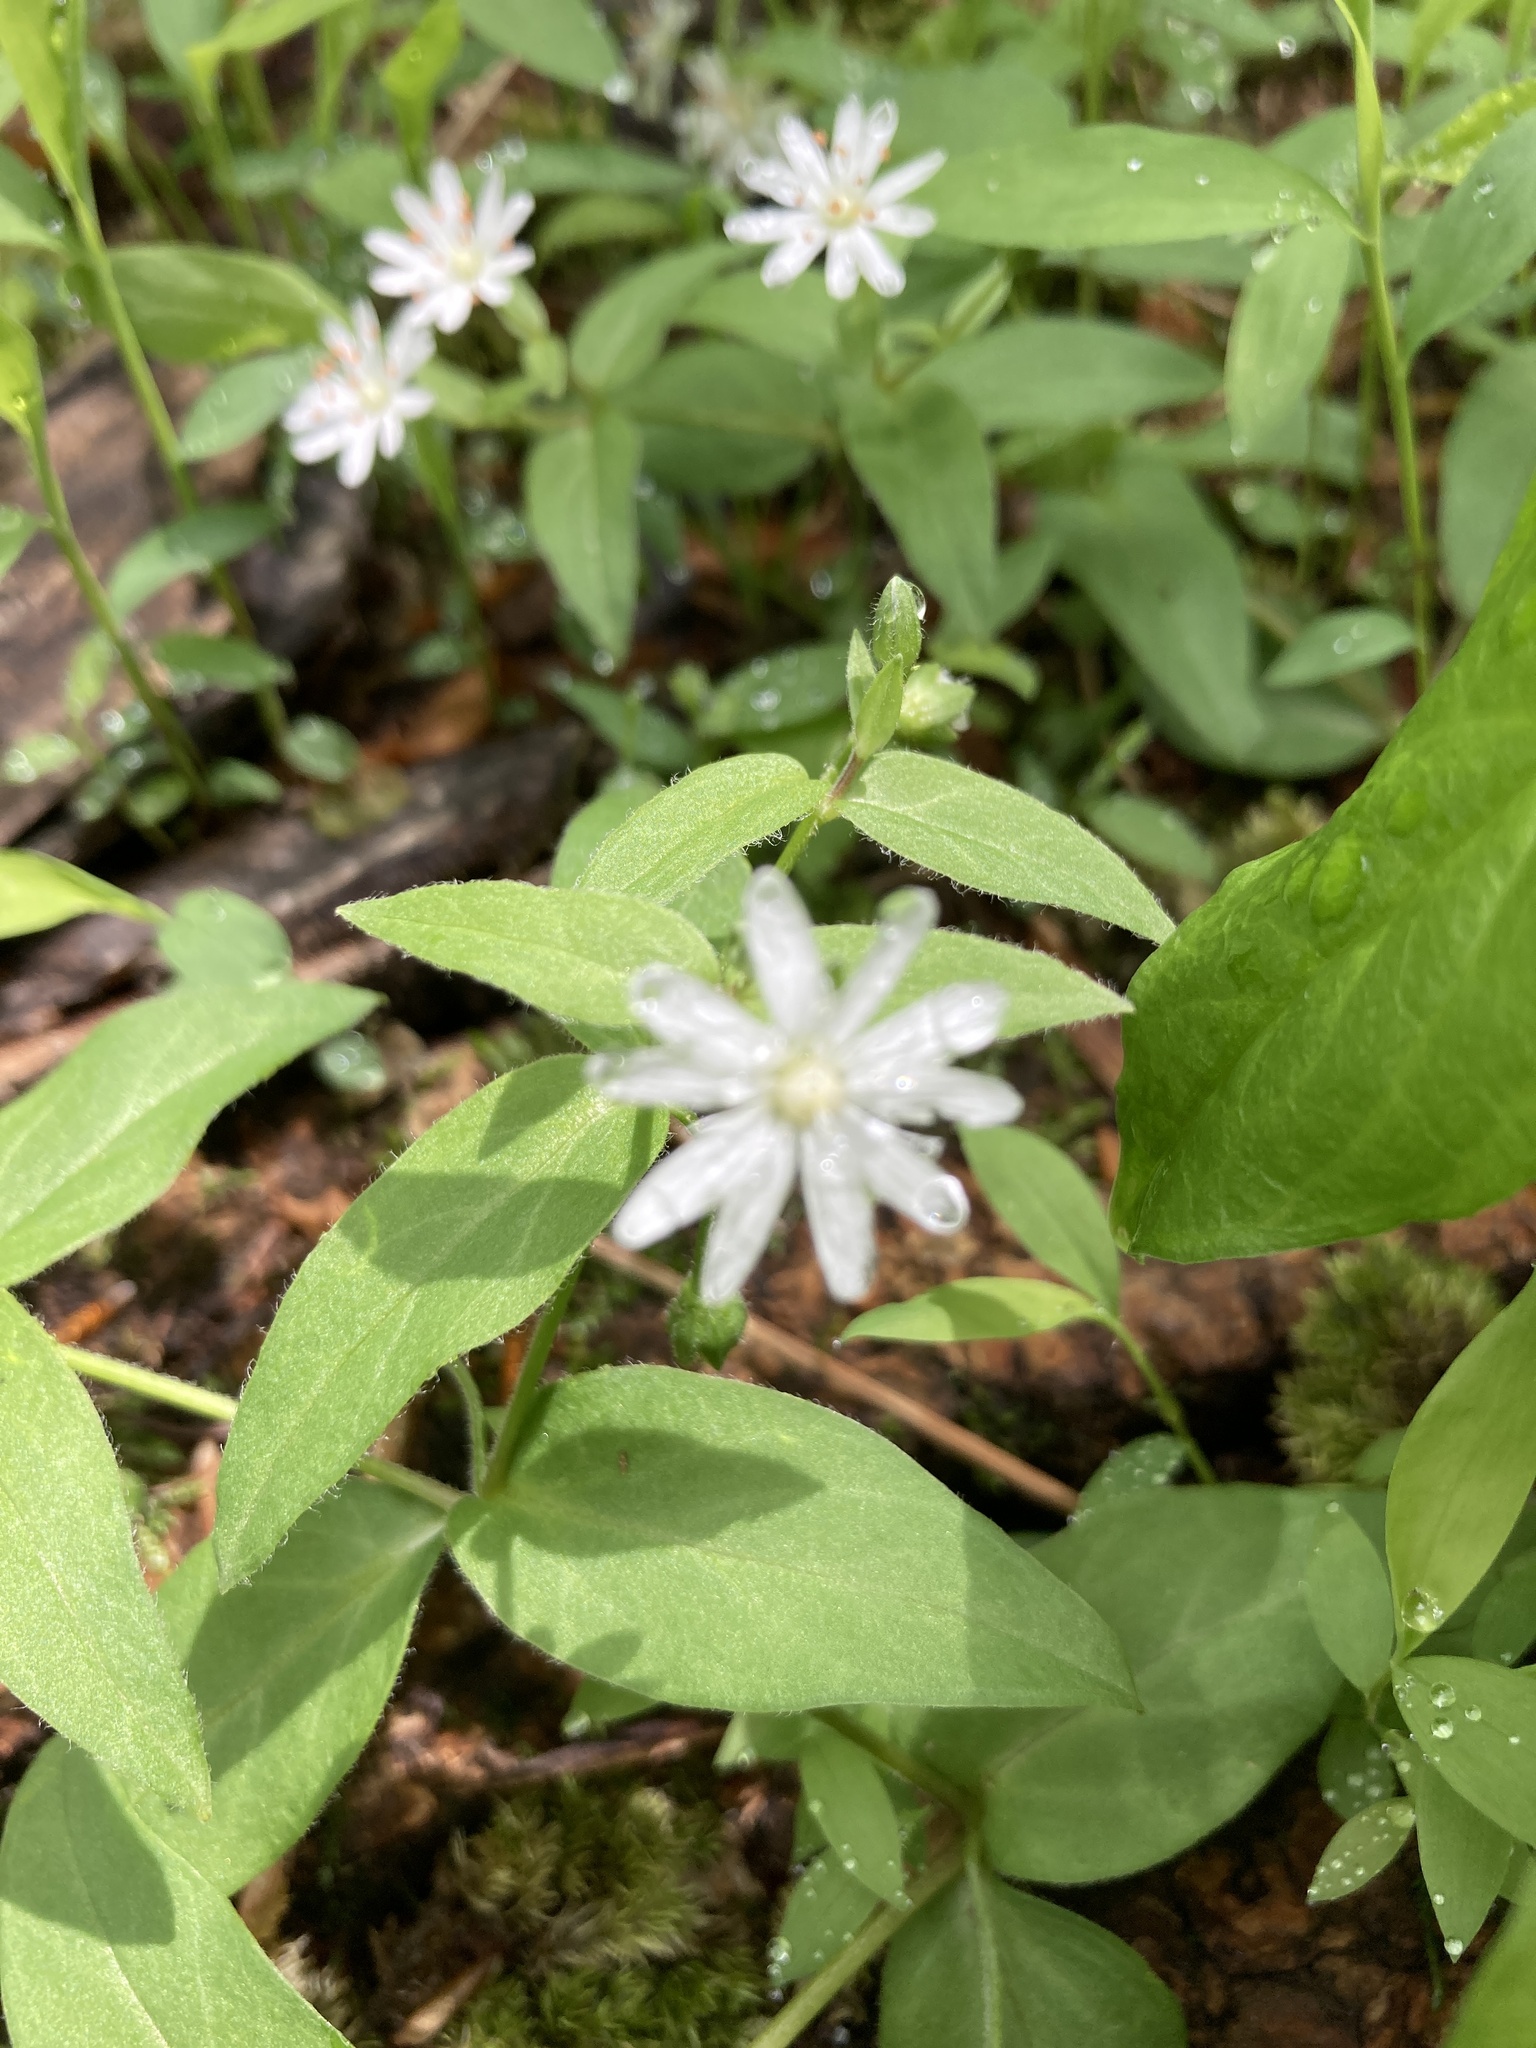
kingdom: Plantae
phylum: Tracheophyta
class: Magnoliopsida
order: Caryophyllales
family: Caryophyllaceae
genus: Stellaria
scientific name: Stellaria pubera
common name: Star chickweed
